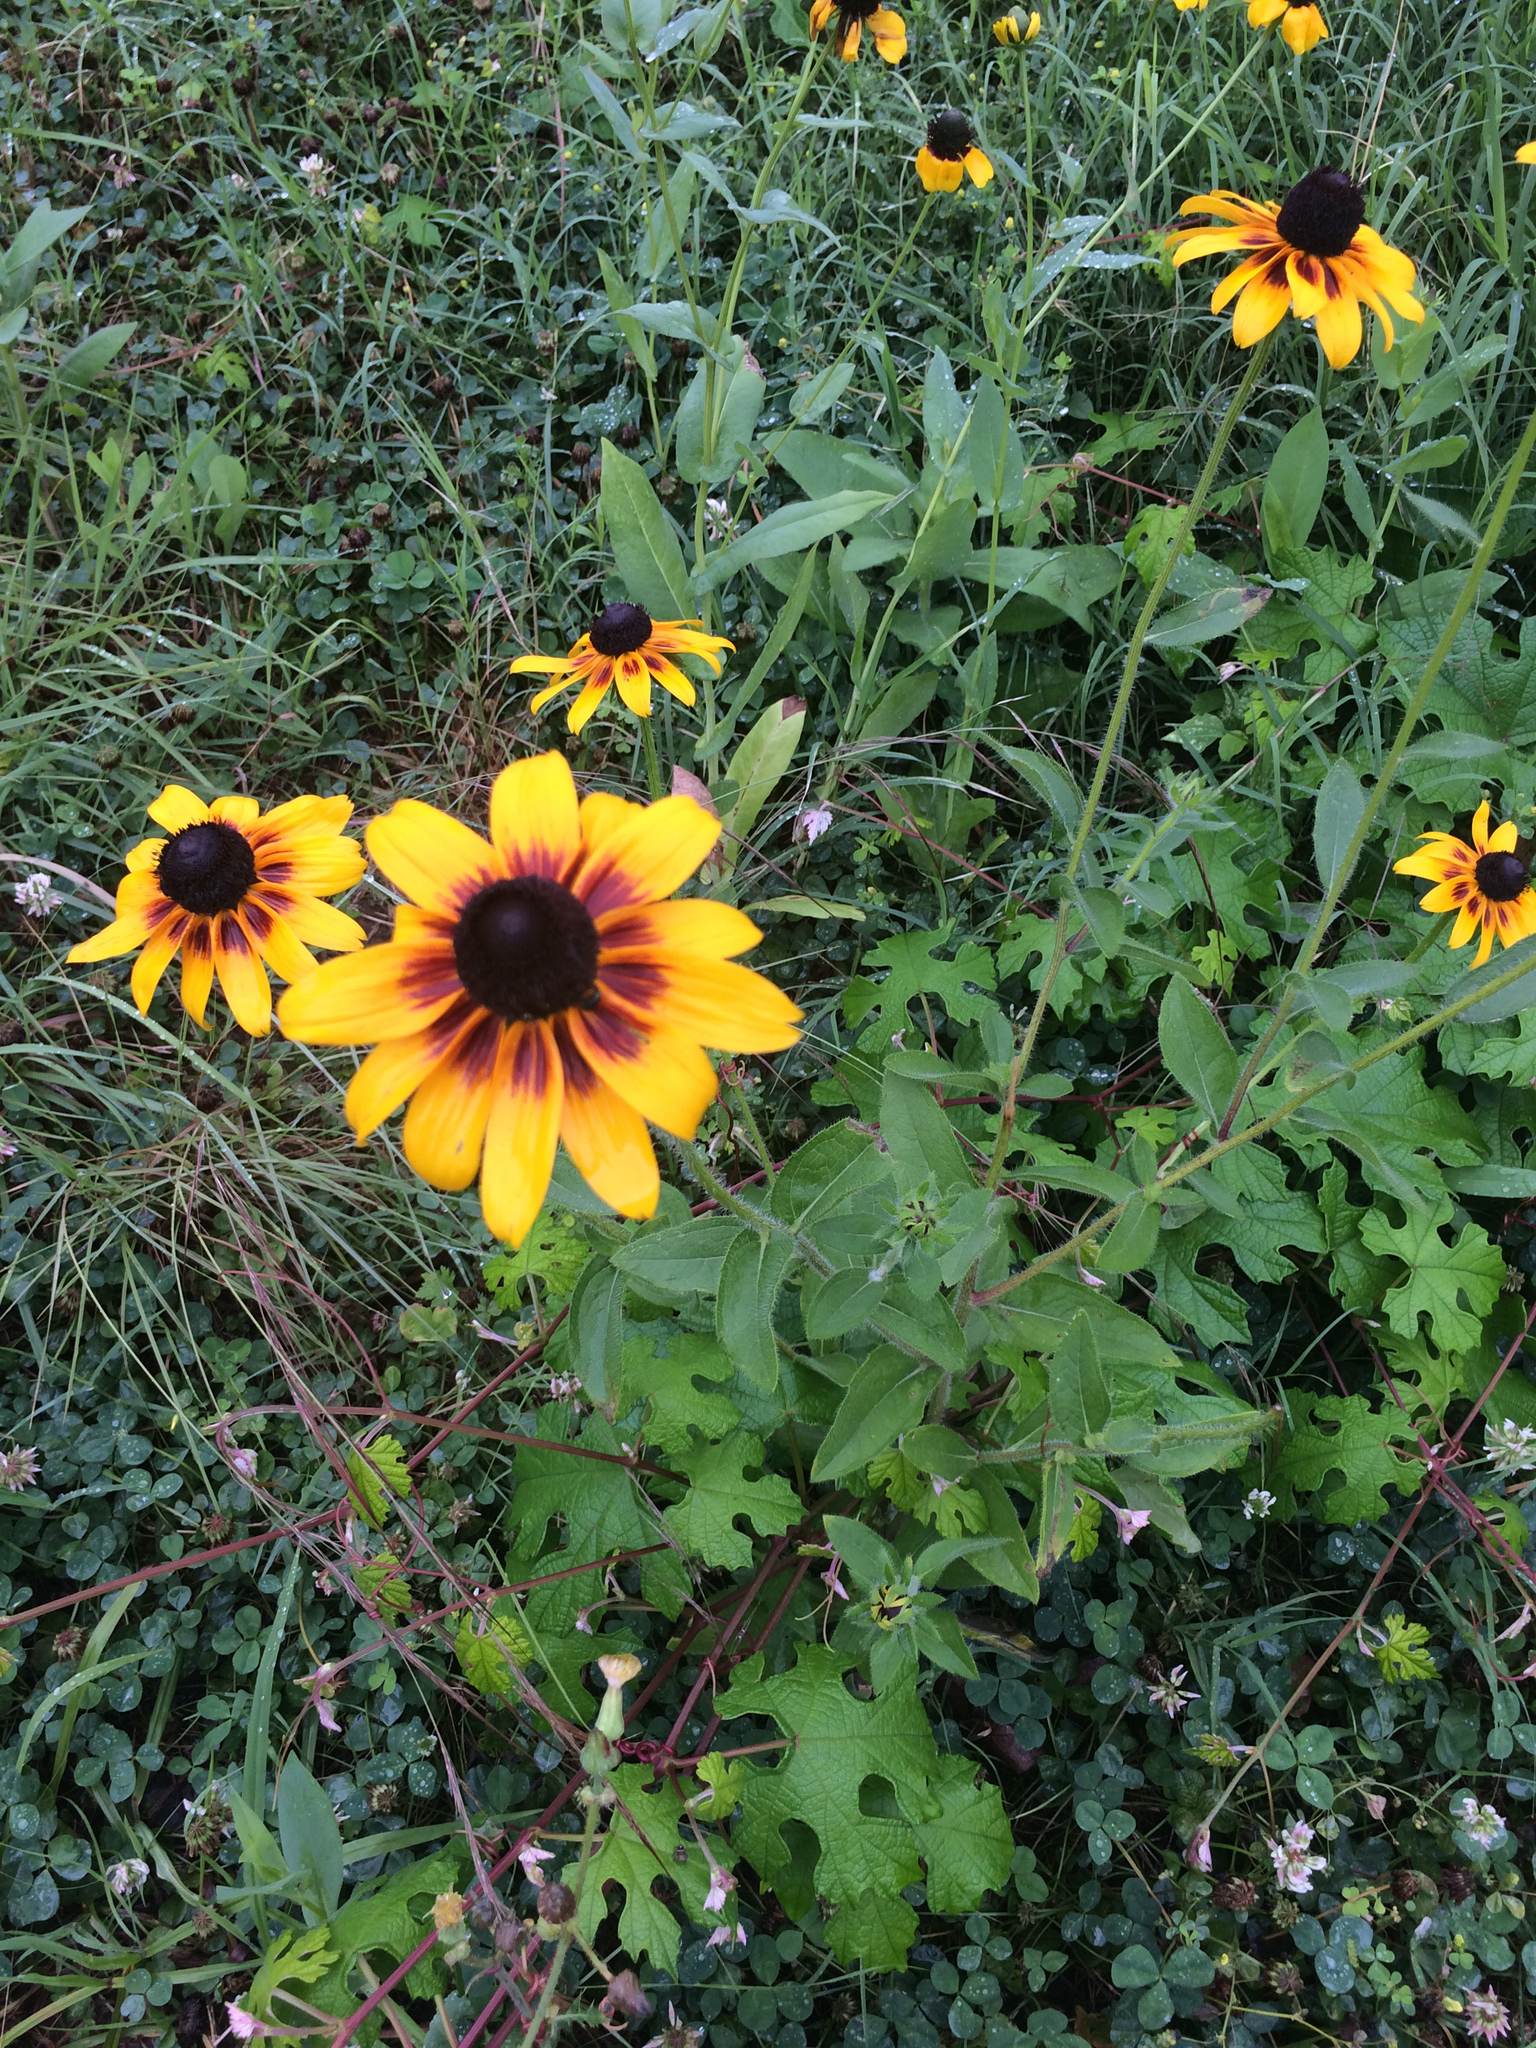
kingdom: Plantae
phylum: Tracheophyta
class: Magnoliopsida
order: Asterales
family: Asteraceae
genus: Rudbeckia
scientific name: Rudbeckia hirta
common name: Black-eyed-susan
